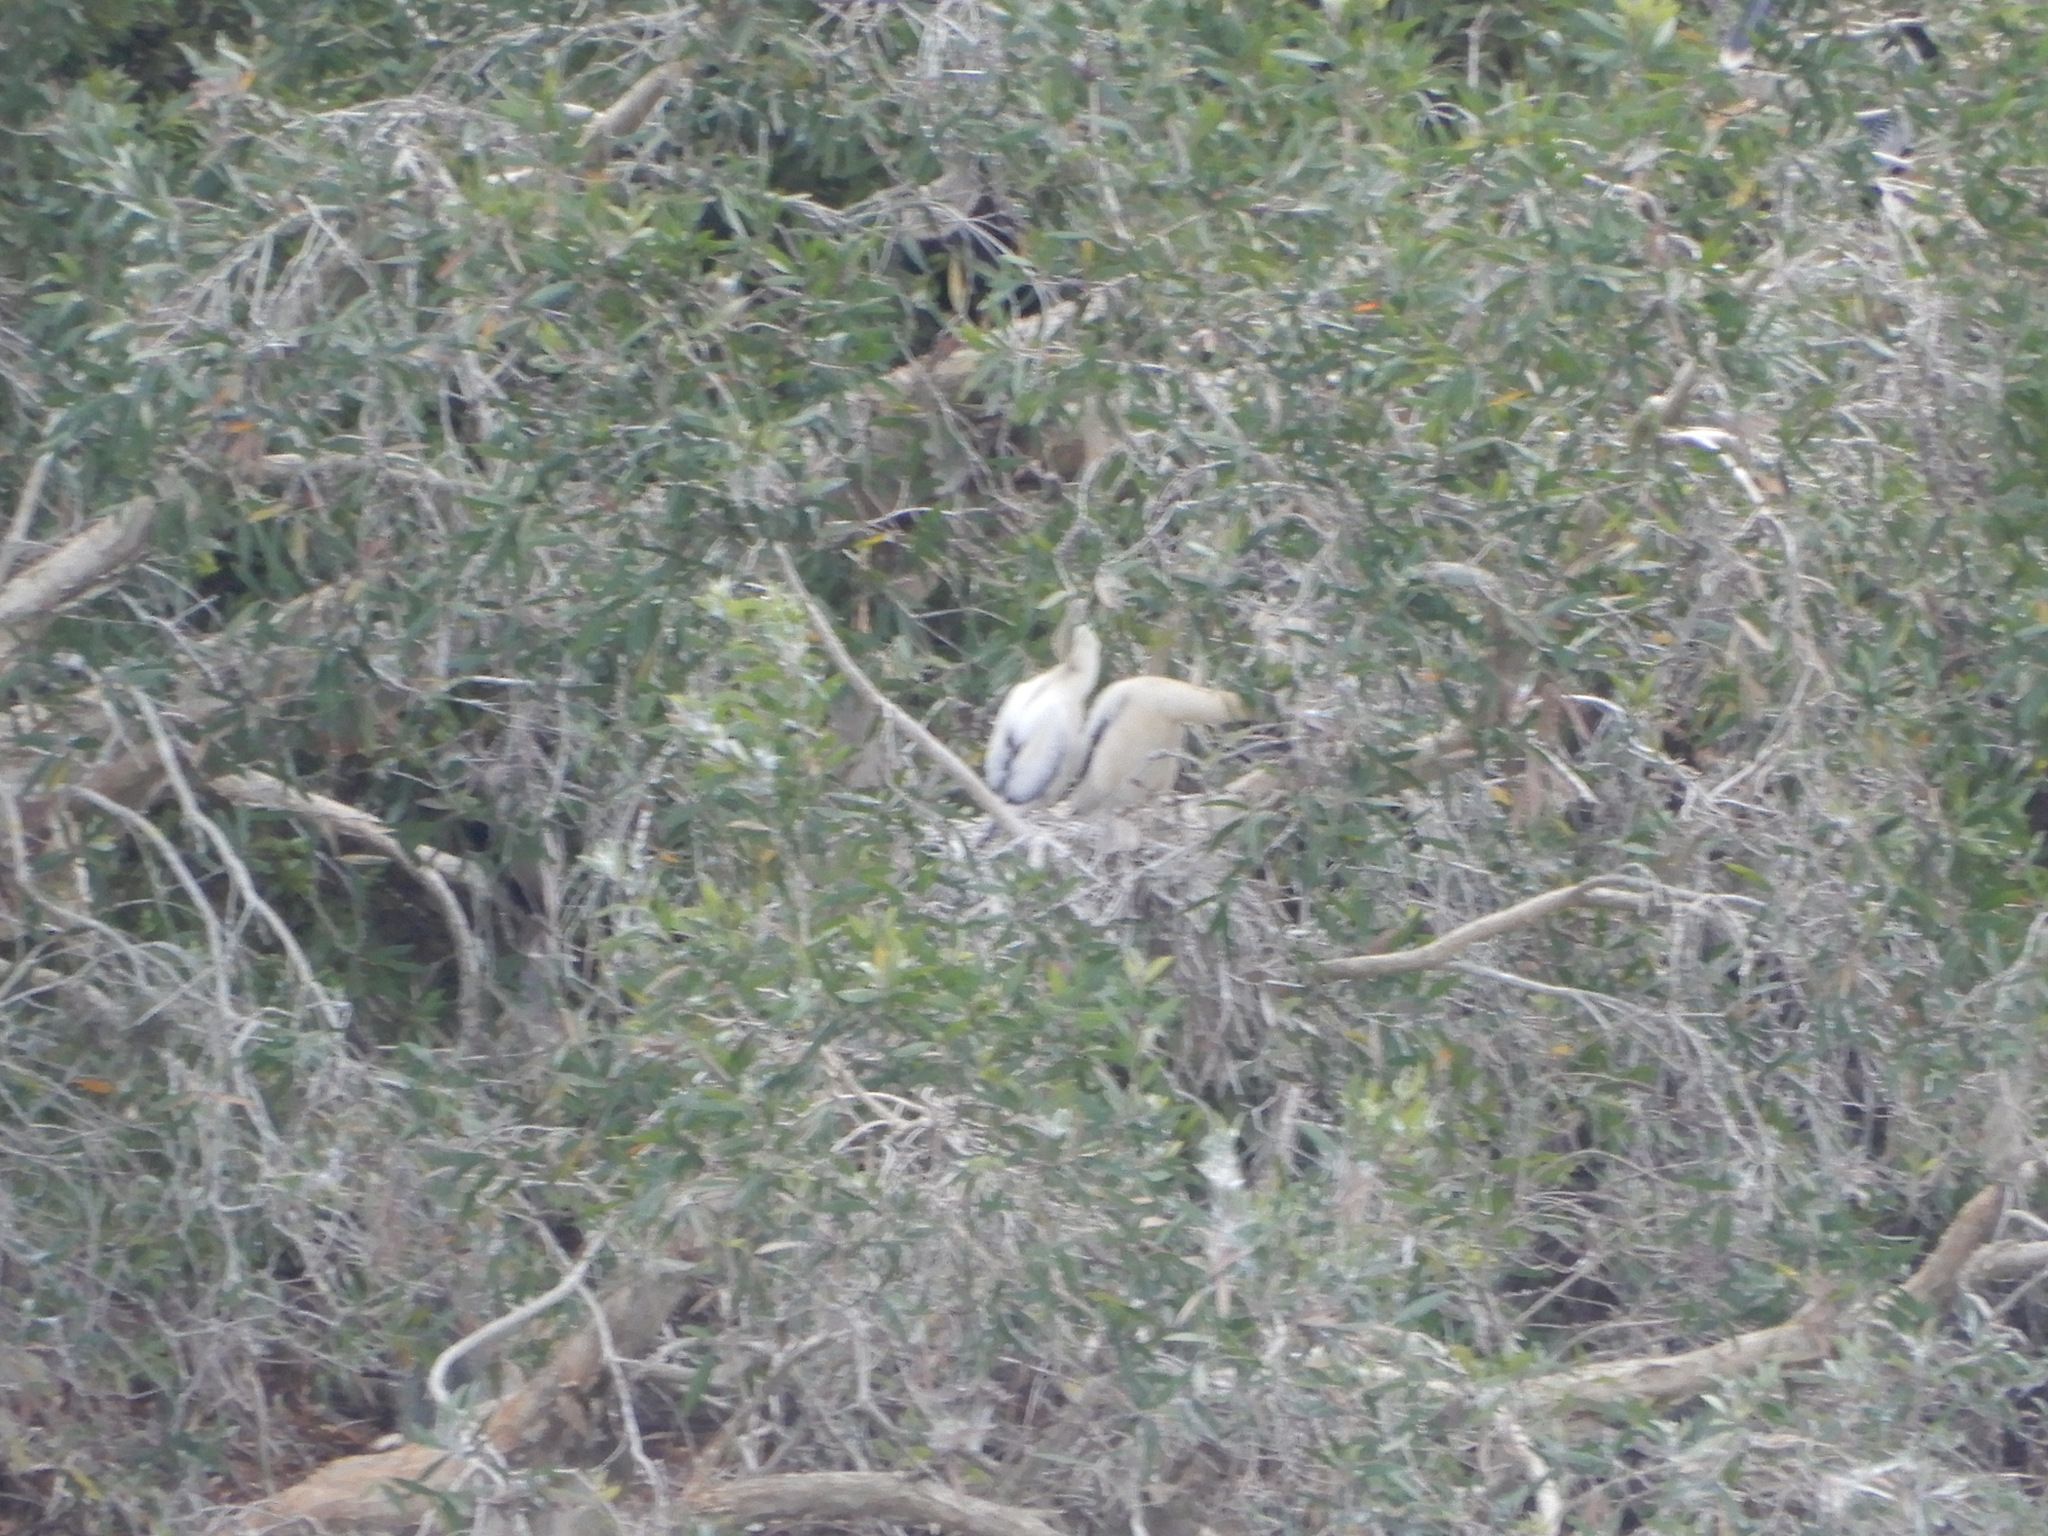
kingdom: Animalia
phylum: Chordata
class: Aves
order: Suliformes
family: Anhingidae
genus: Anhinga
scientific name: Anhinga anhinga
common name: Anhinga
